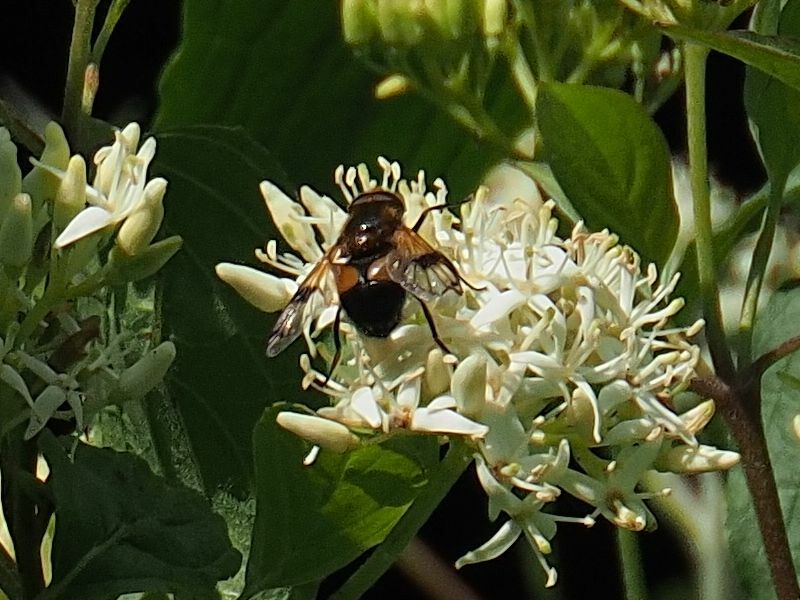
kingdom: Animalia
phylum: Arthropoda
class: Insecta
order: Diptera
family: Syrphidae
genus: Volucella
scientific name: Volucella inflata
